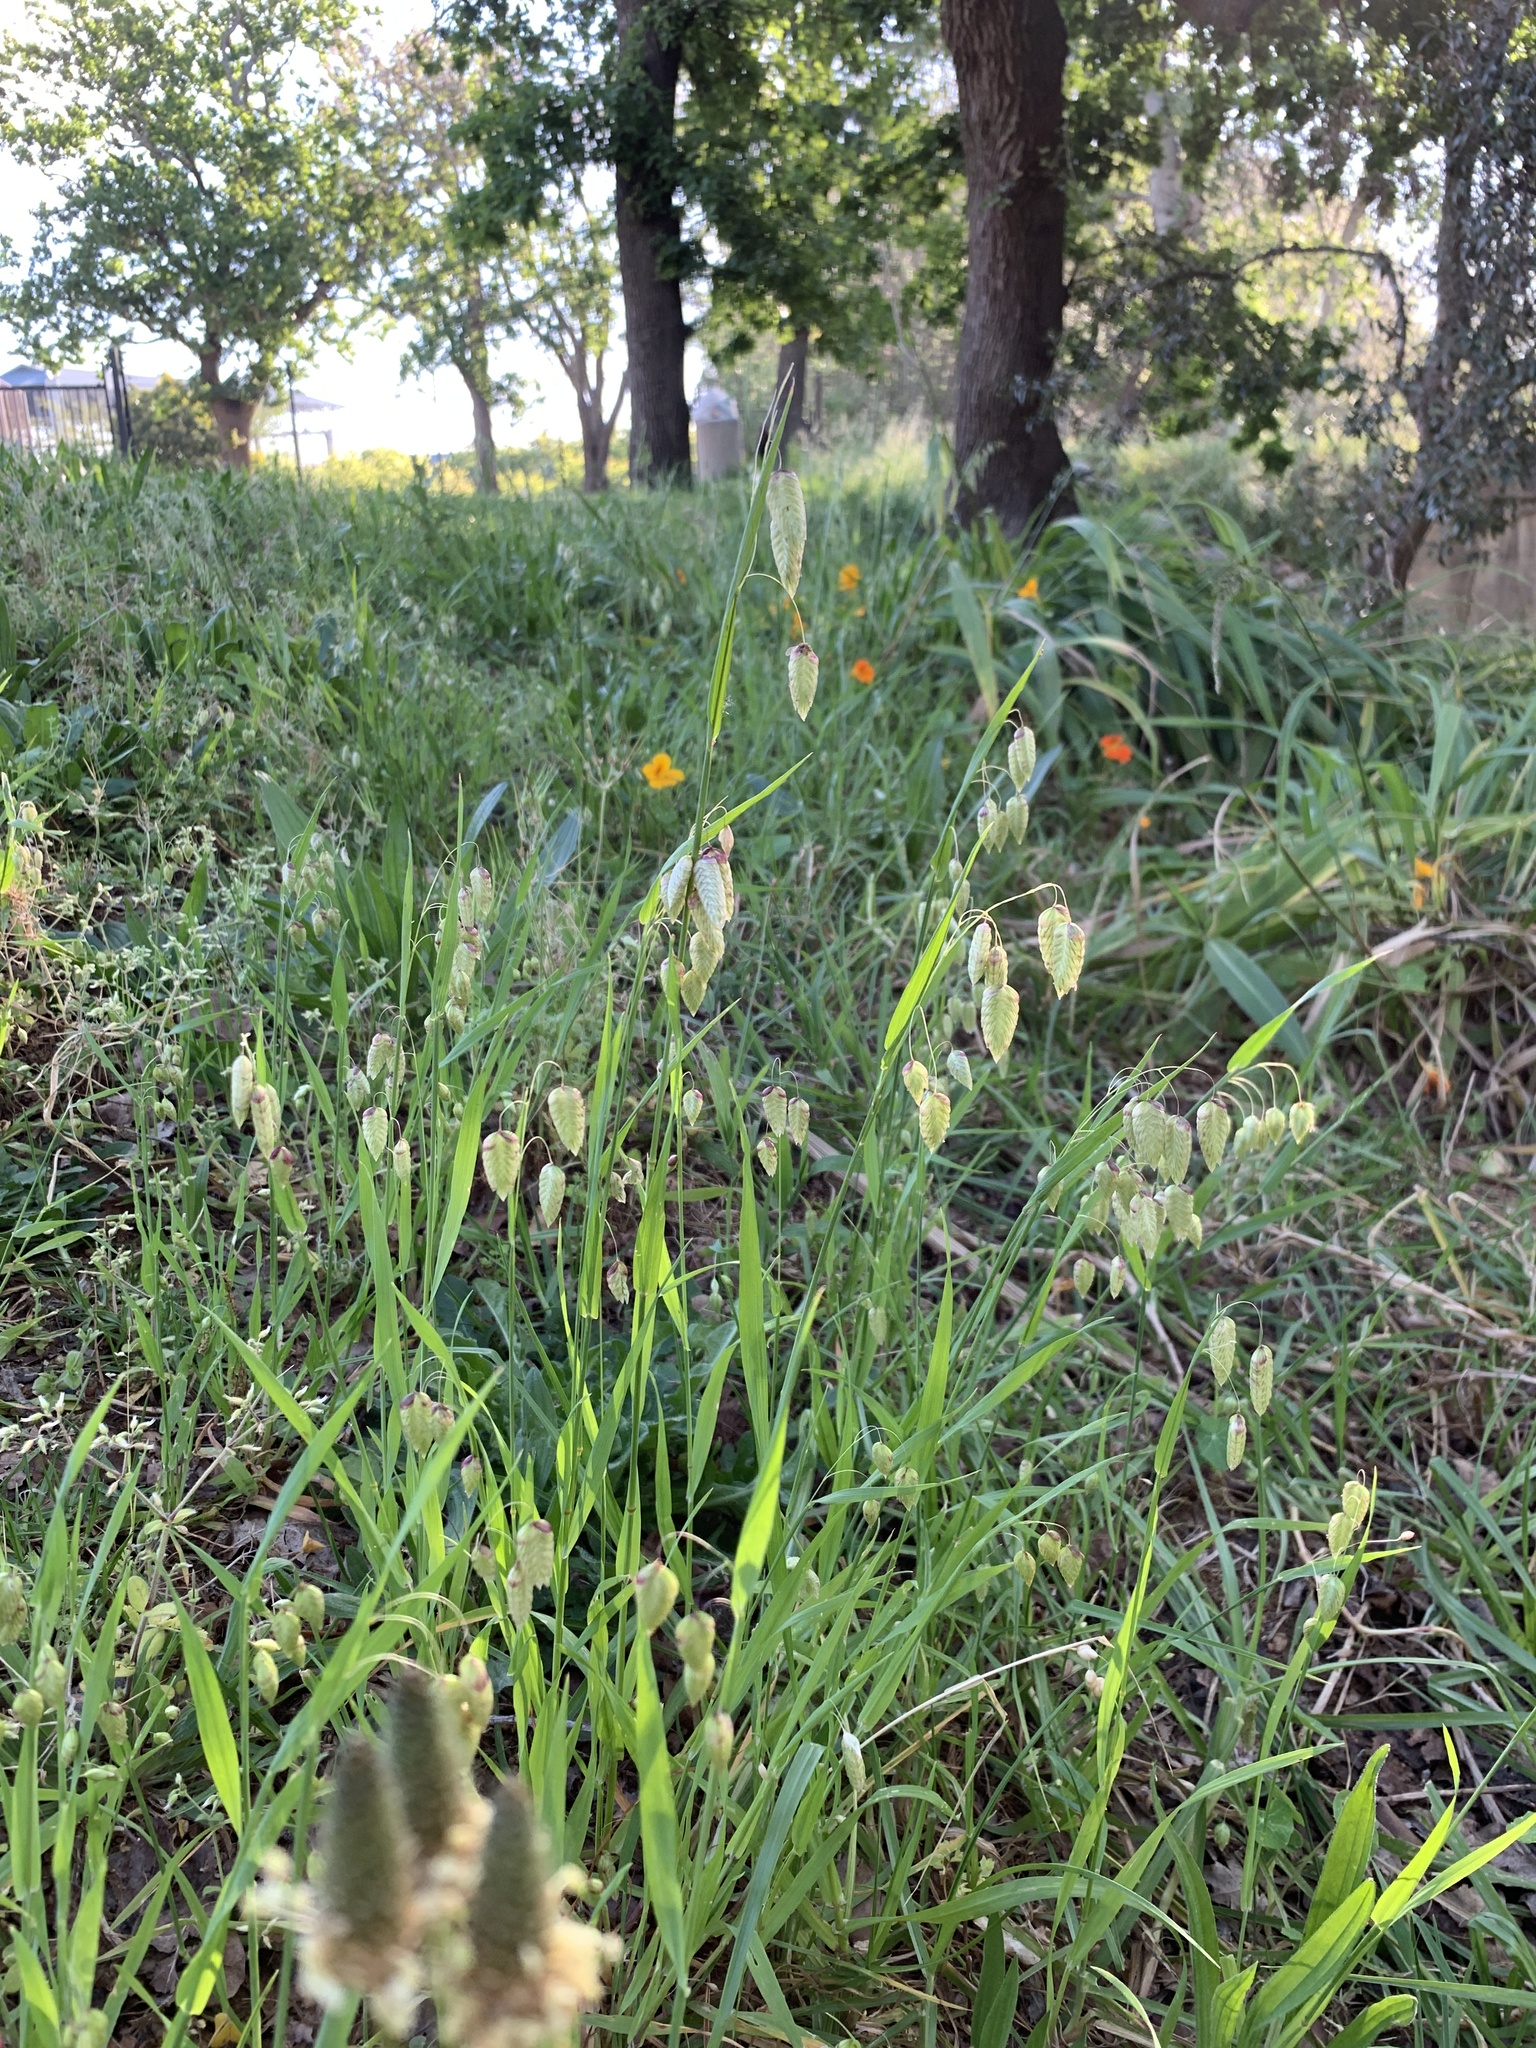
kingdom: Plantae
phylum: Tracheophyta
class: Liliopsida
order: Poales
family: Poaceae
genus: Briza
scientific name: Briza maxima
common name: Big quakinggrass
